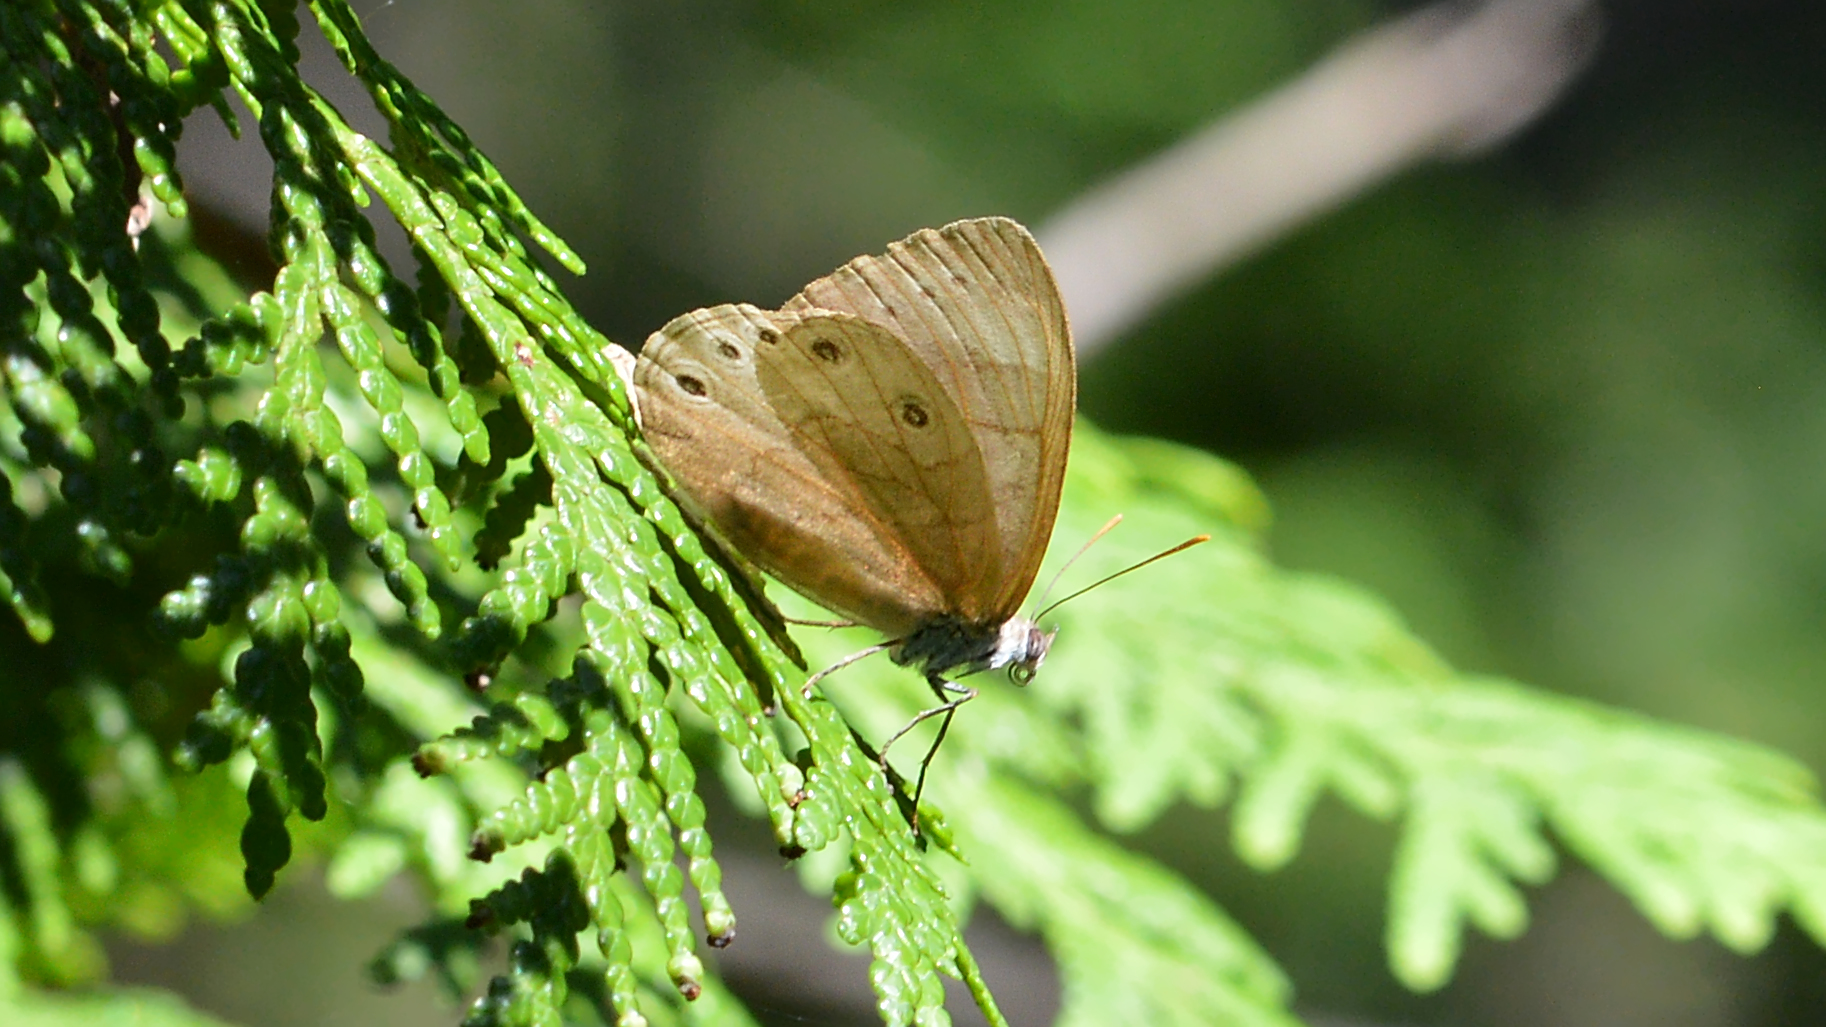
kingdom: Animalia
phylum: Arthropoda
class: Insecta
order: Lepidoptera
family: Nymphalidae
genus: Lethe
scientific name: Lethe eurydice
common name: Eyed brown
